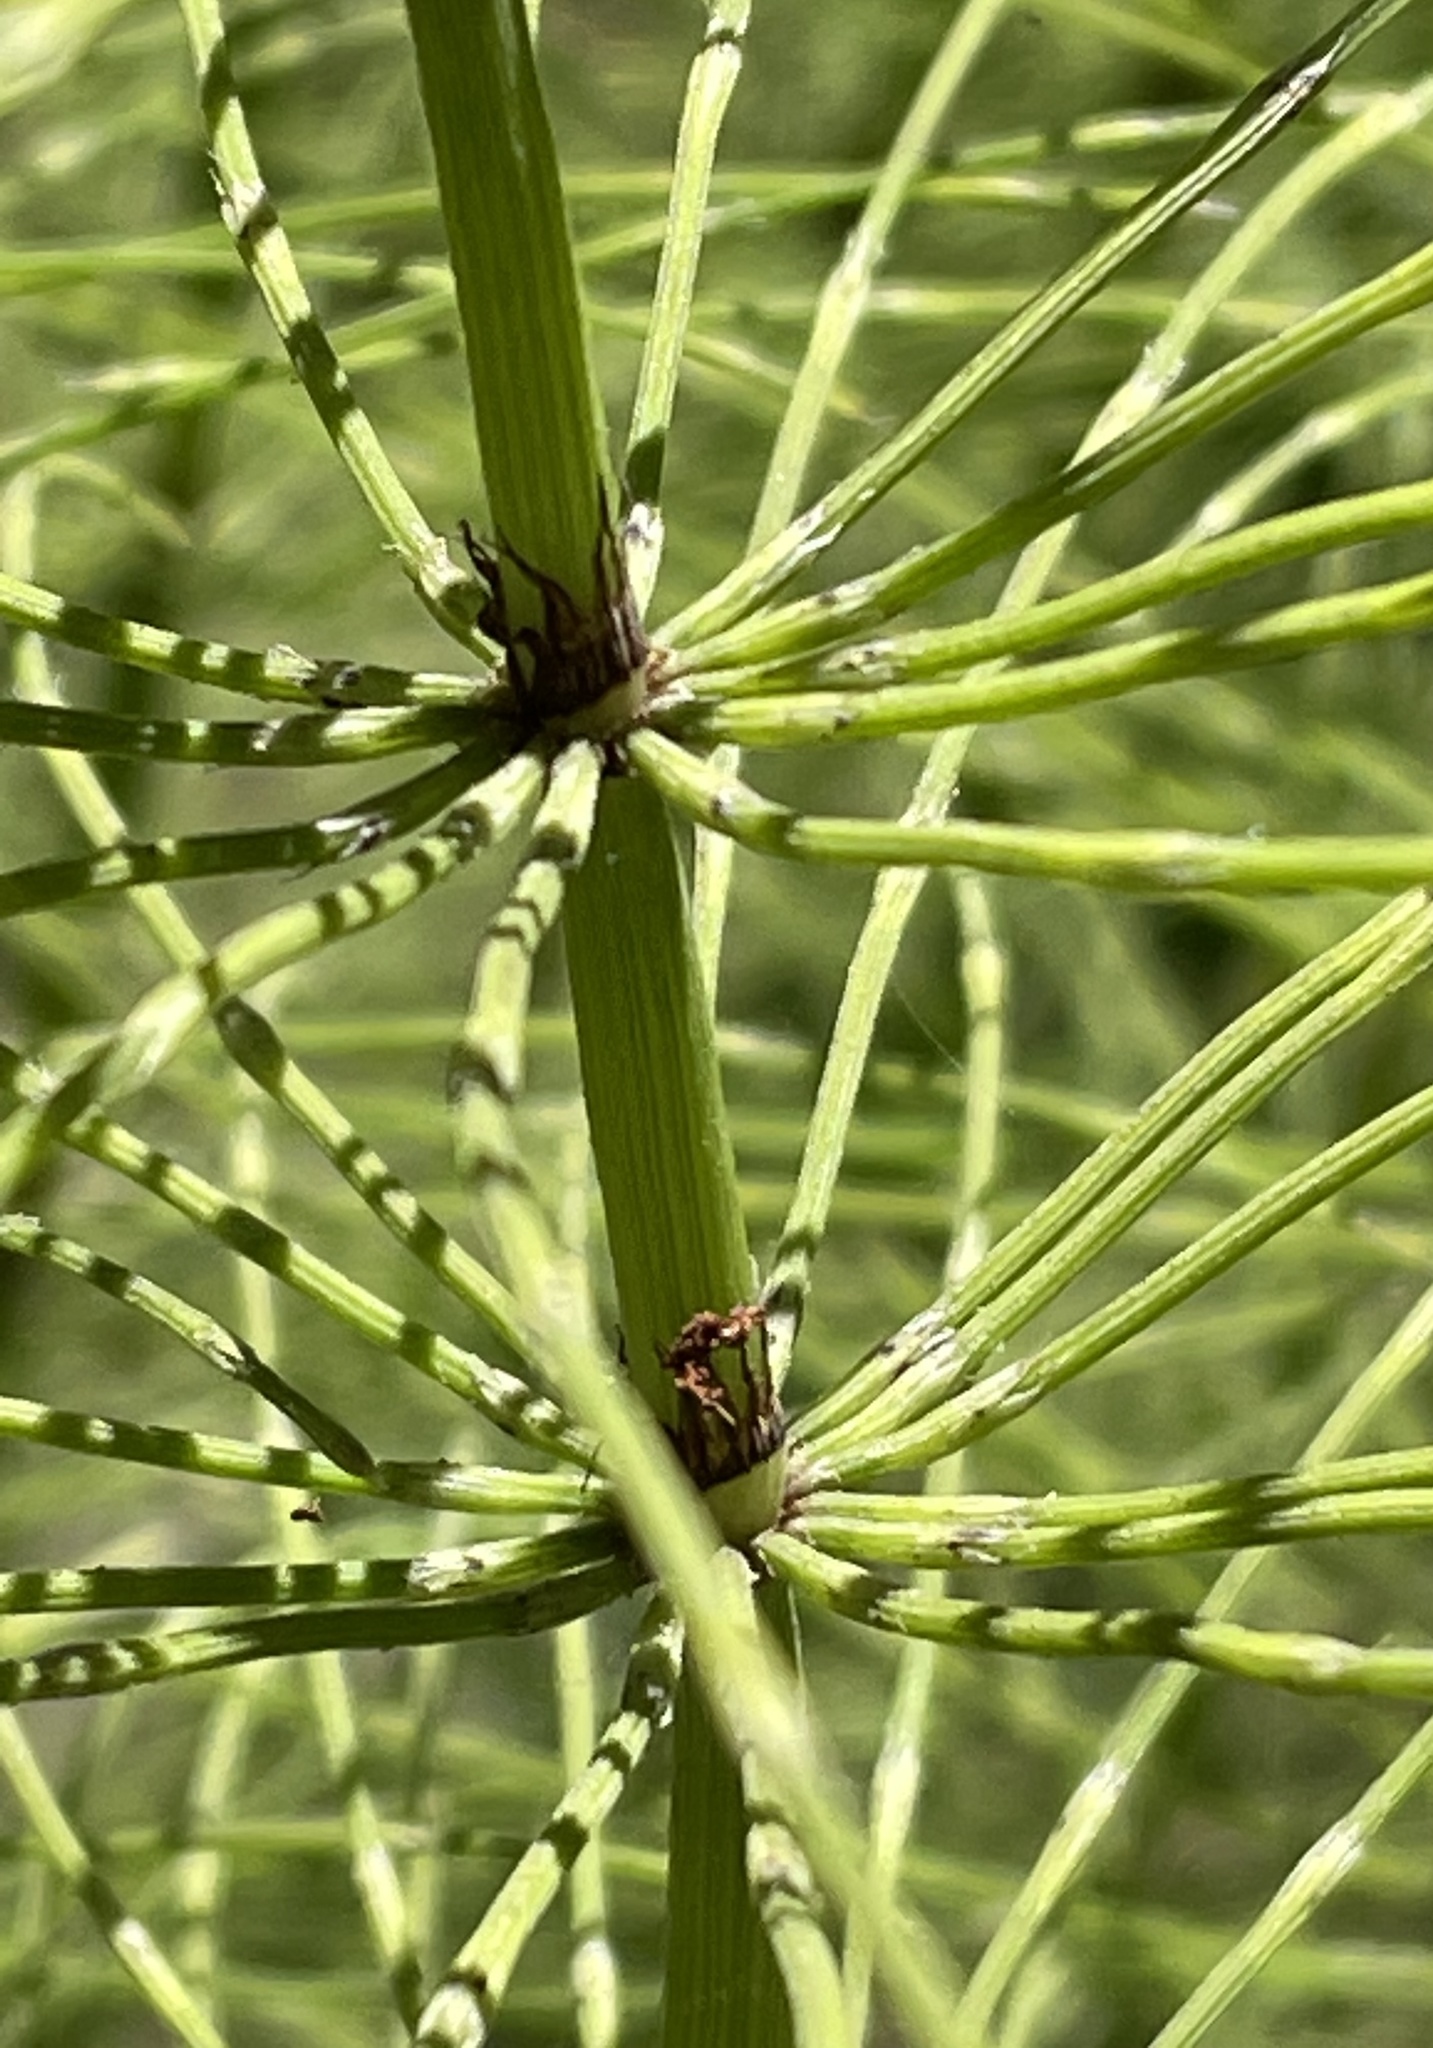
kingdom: Plantae
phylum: Tracheophyta
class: Polypodiopsida
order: Equisetales
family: Equisetaceae
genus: Equisetum
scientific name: Equisetum braunii
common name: Braun's horsetail
